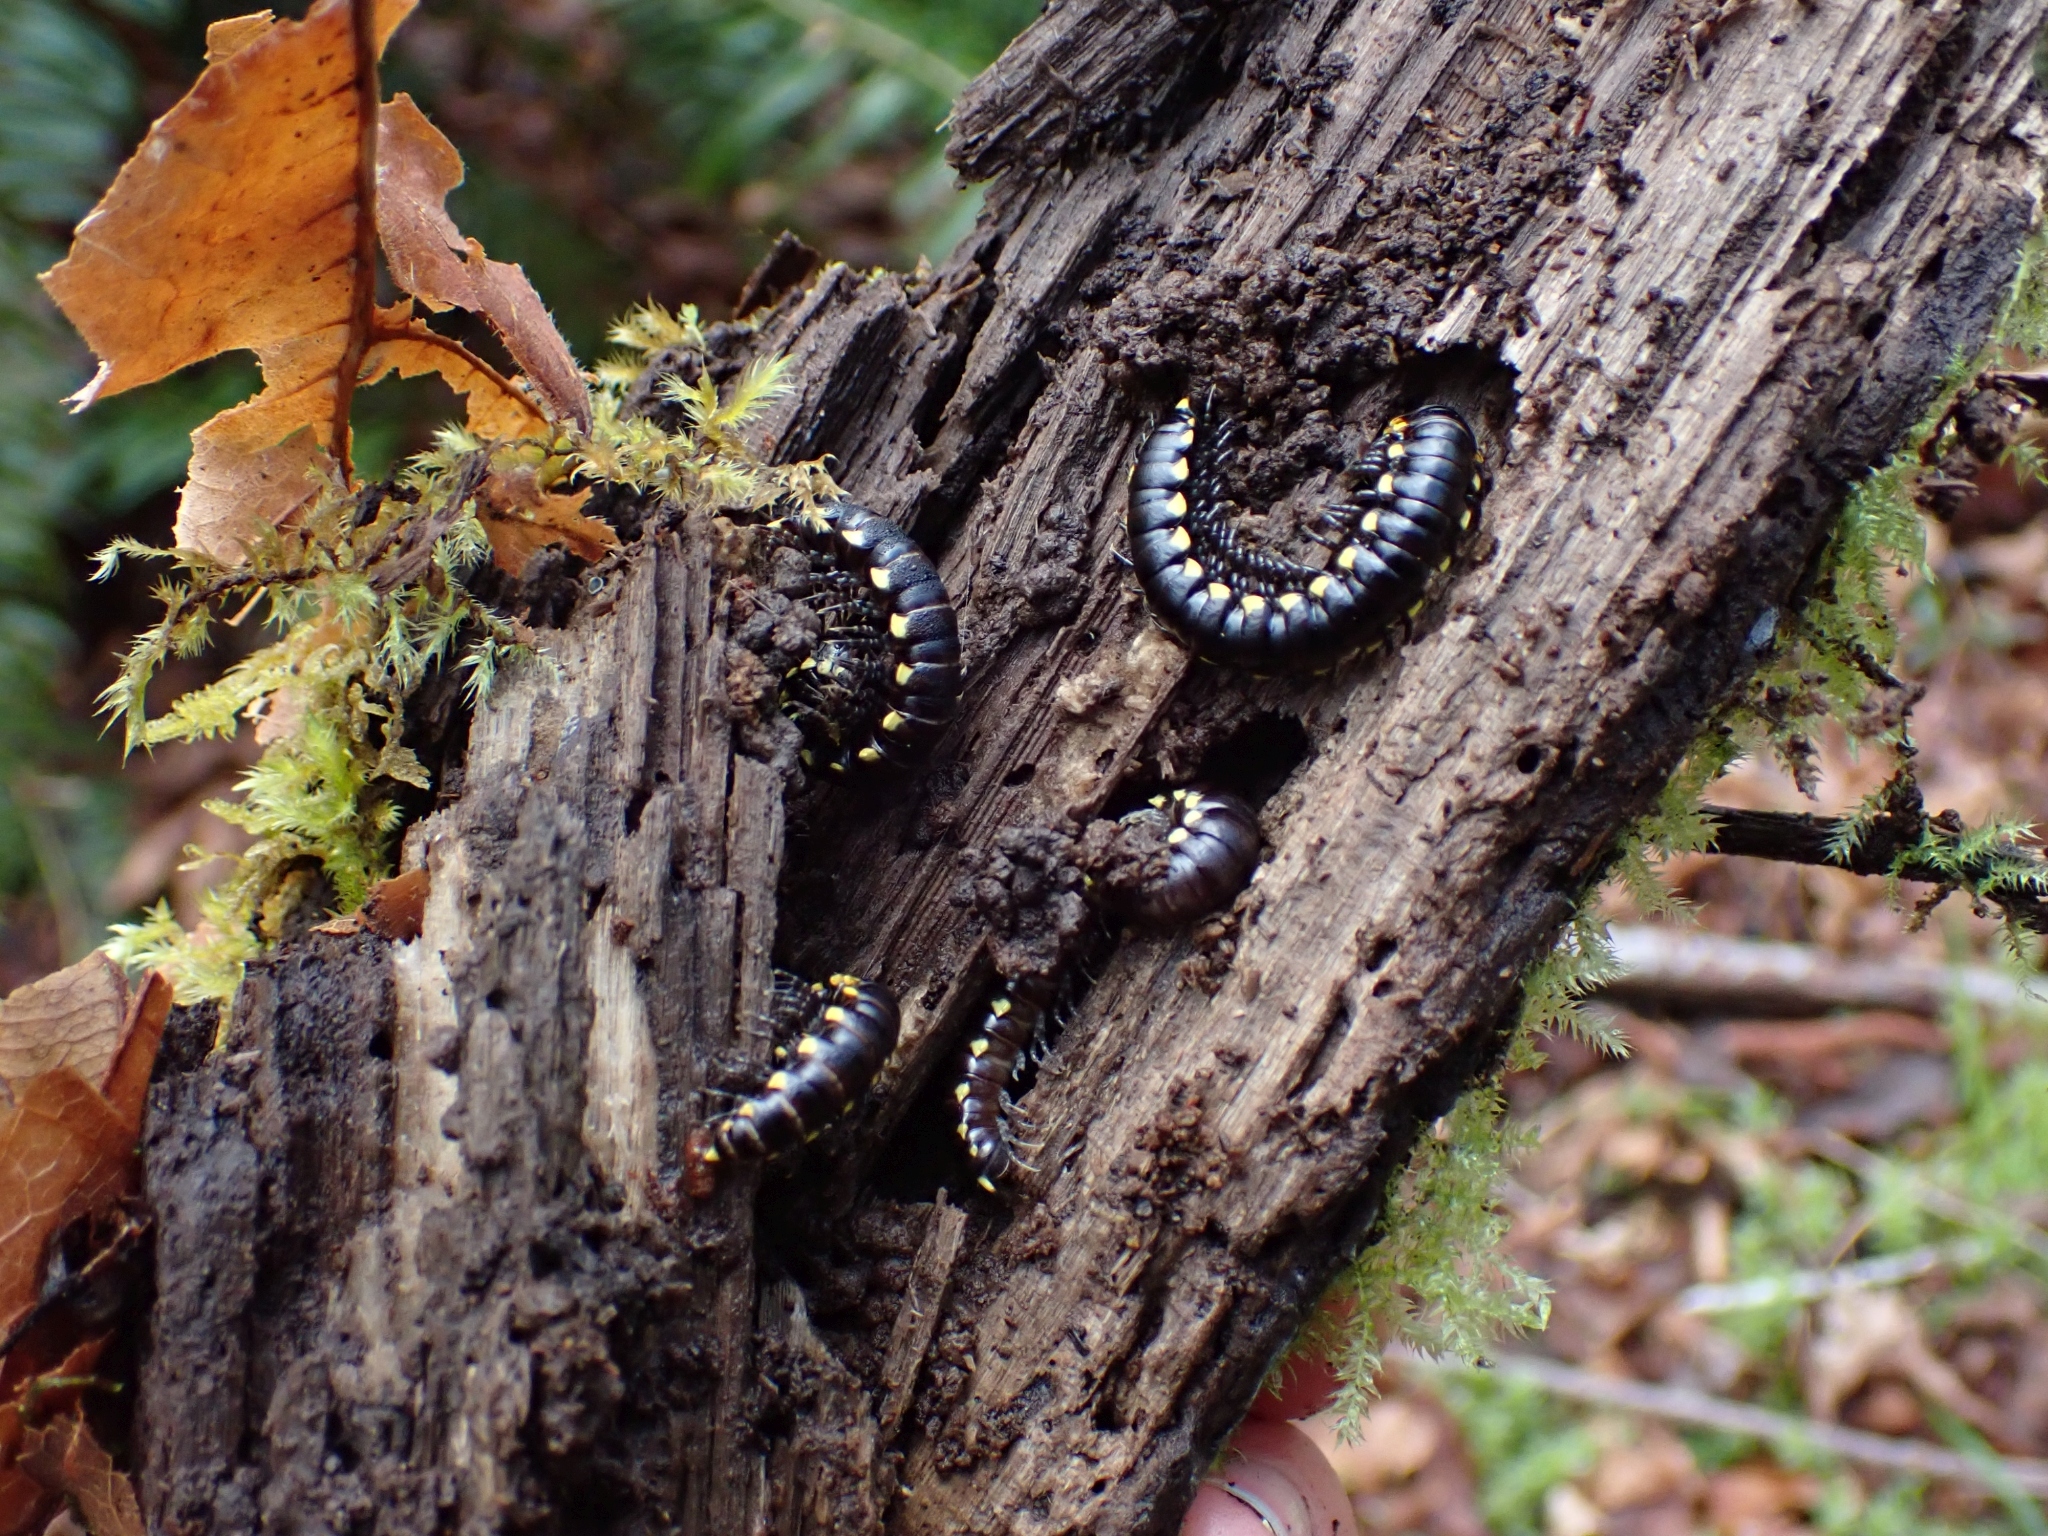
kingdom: Animalia
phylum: Arthropoda
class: Diplopoda
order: Polydesmida
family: Xystodesmidae
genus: Harpaphe
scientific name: Harpaphe haydeniana
